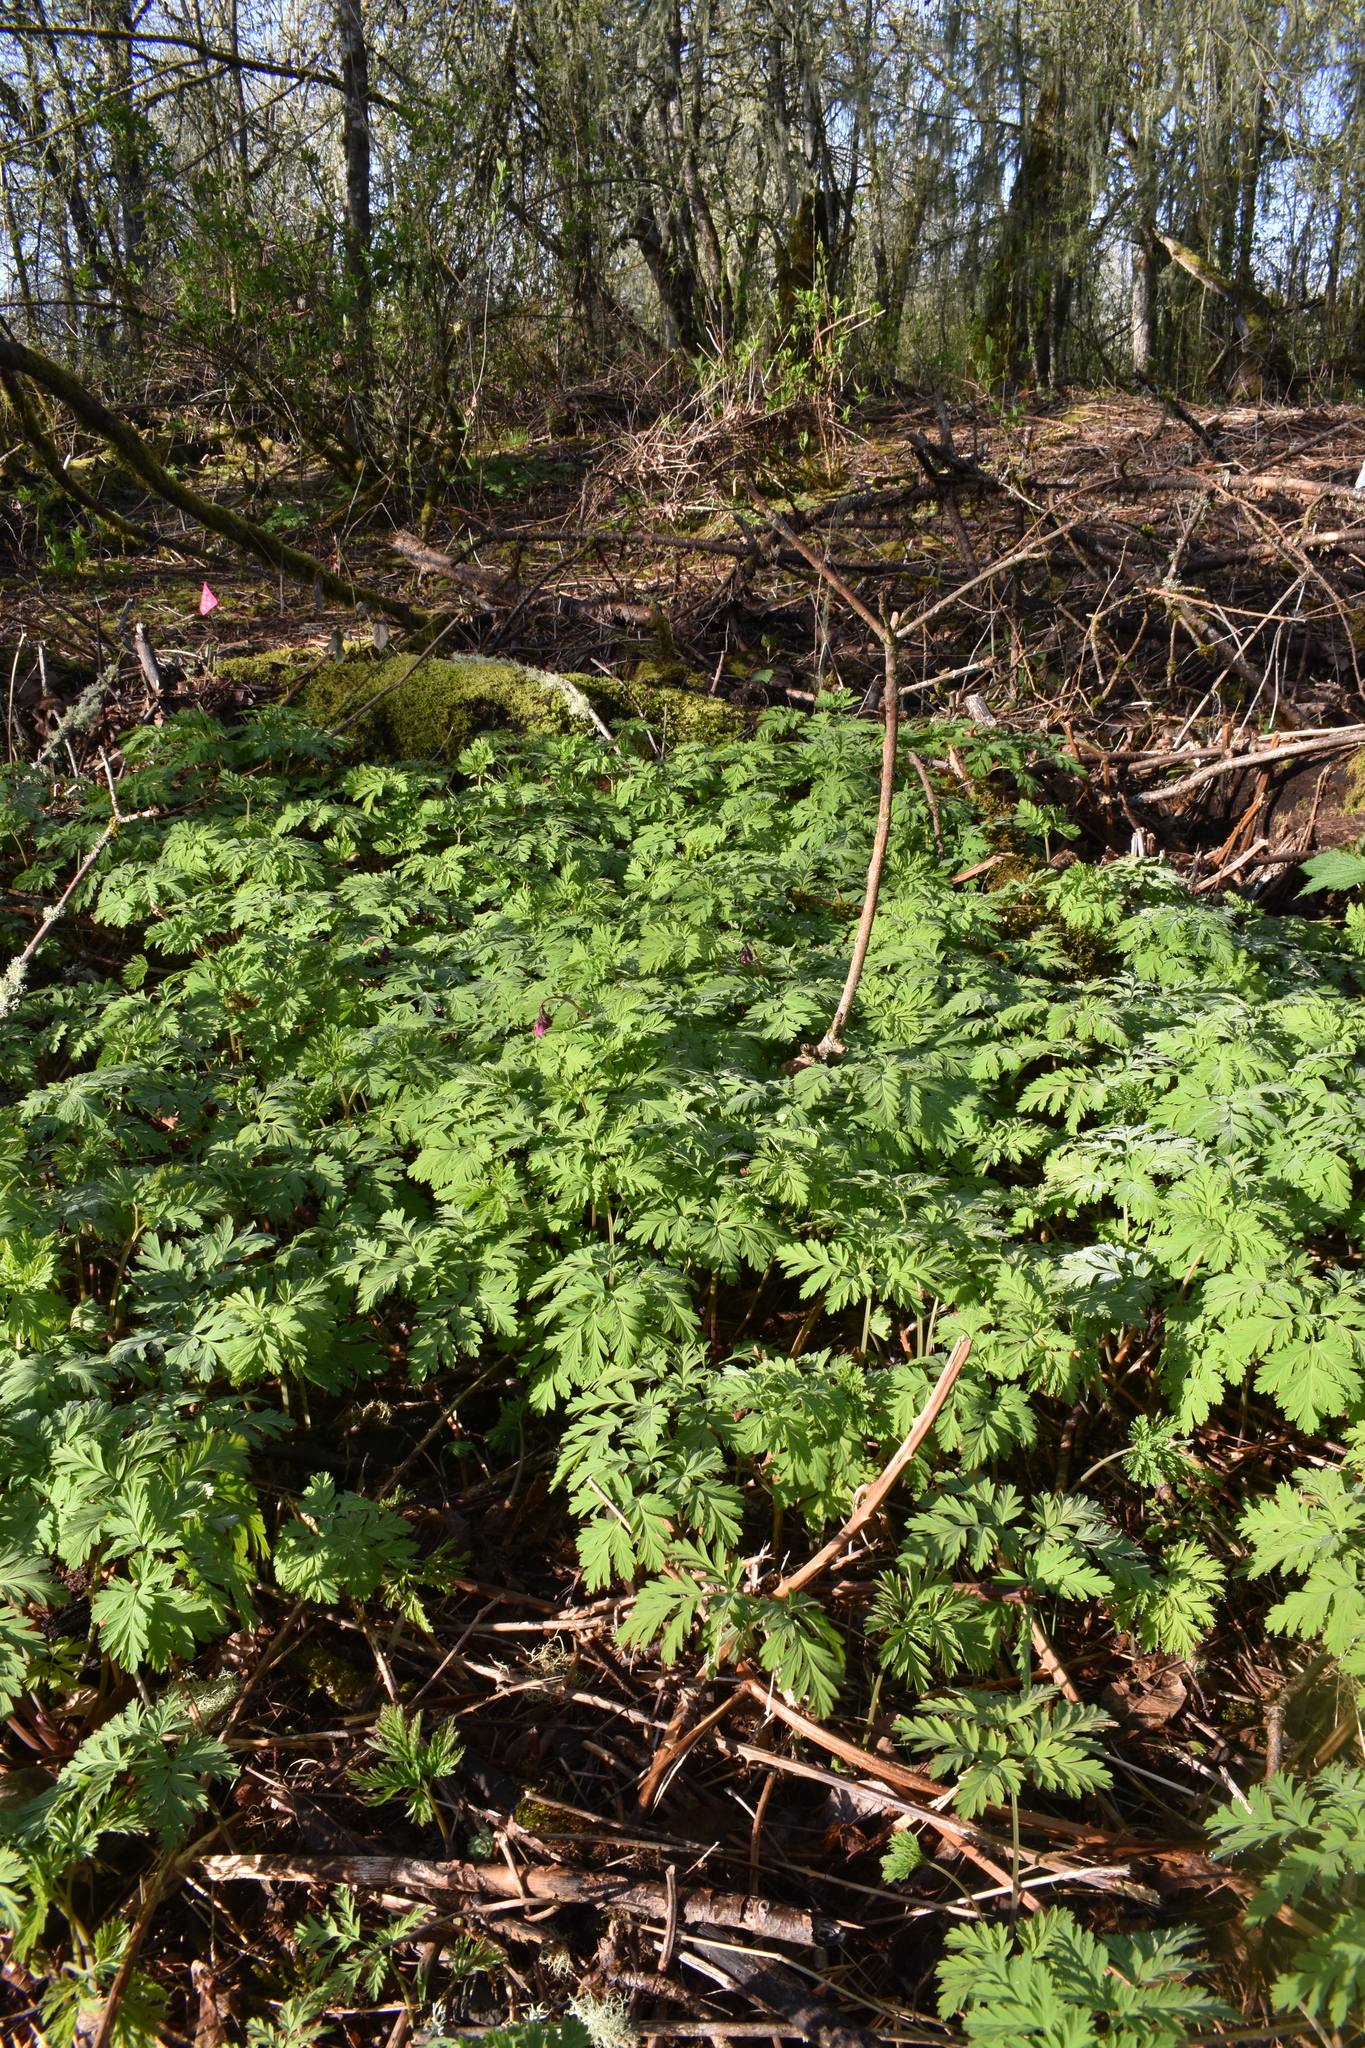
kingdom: Plantae
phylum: Tracheophyta
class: Magnoliopsida
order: Ranunculales
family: Papaveraceae
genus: Dicentra
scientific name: Dicentra formosa
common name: Bleeding-heart
